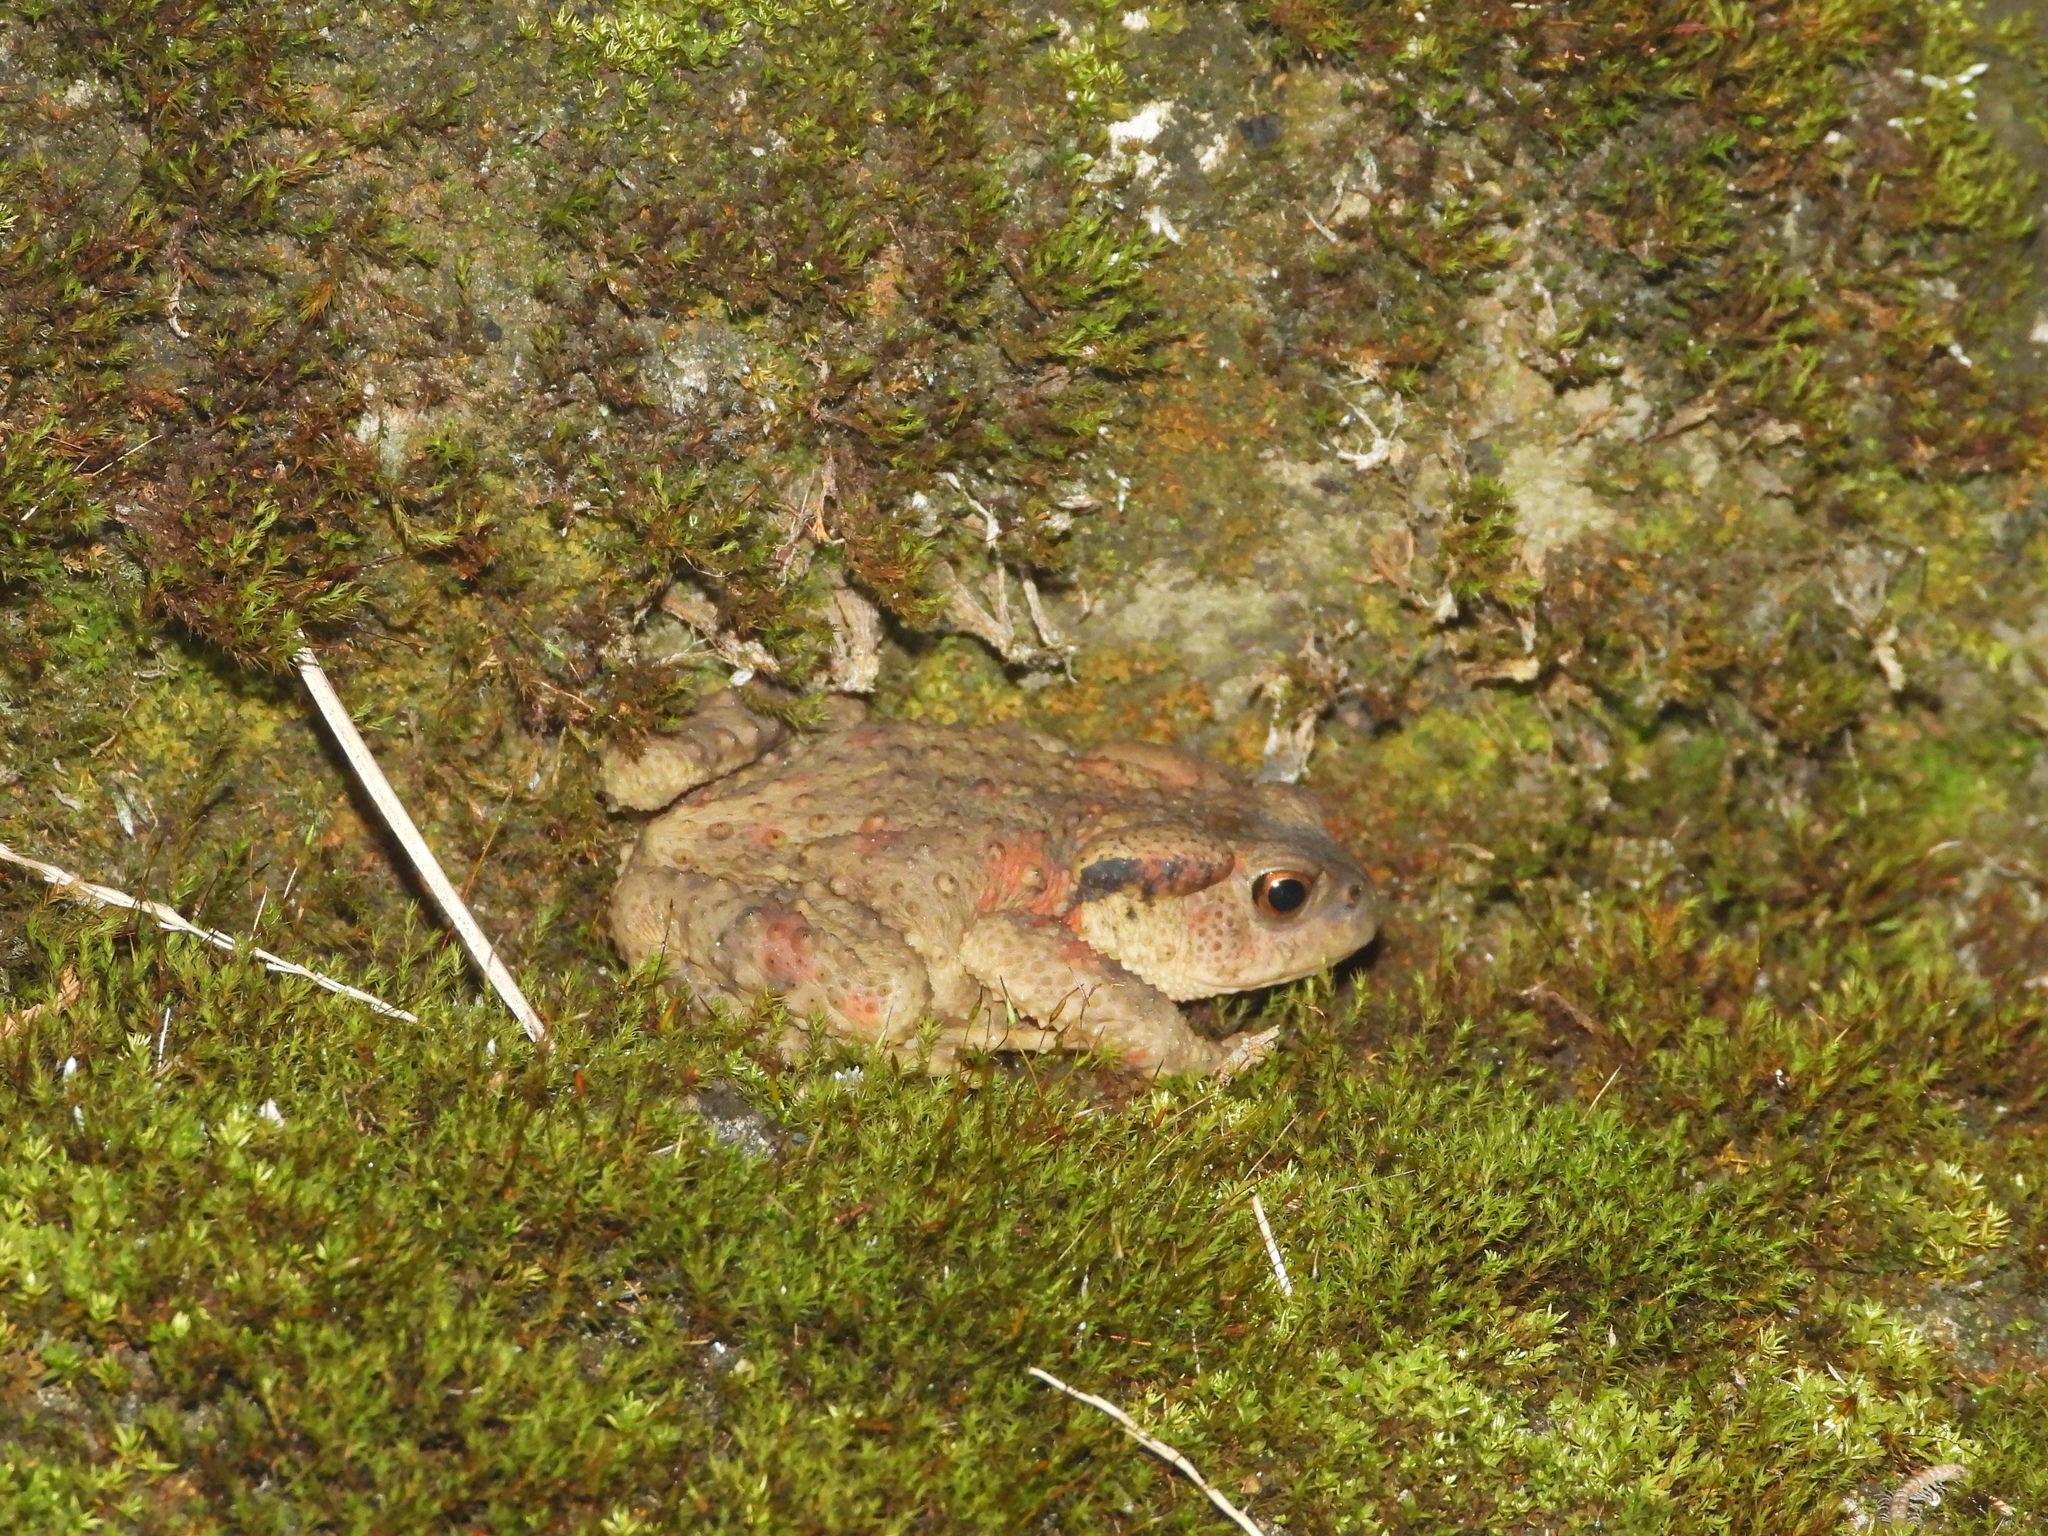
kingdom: Animalia
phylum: Chordata
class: Amphibia
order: Anura
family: Bufonidae
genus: Bufo
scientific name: Bufo bankorensis
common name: Bankor toad
